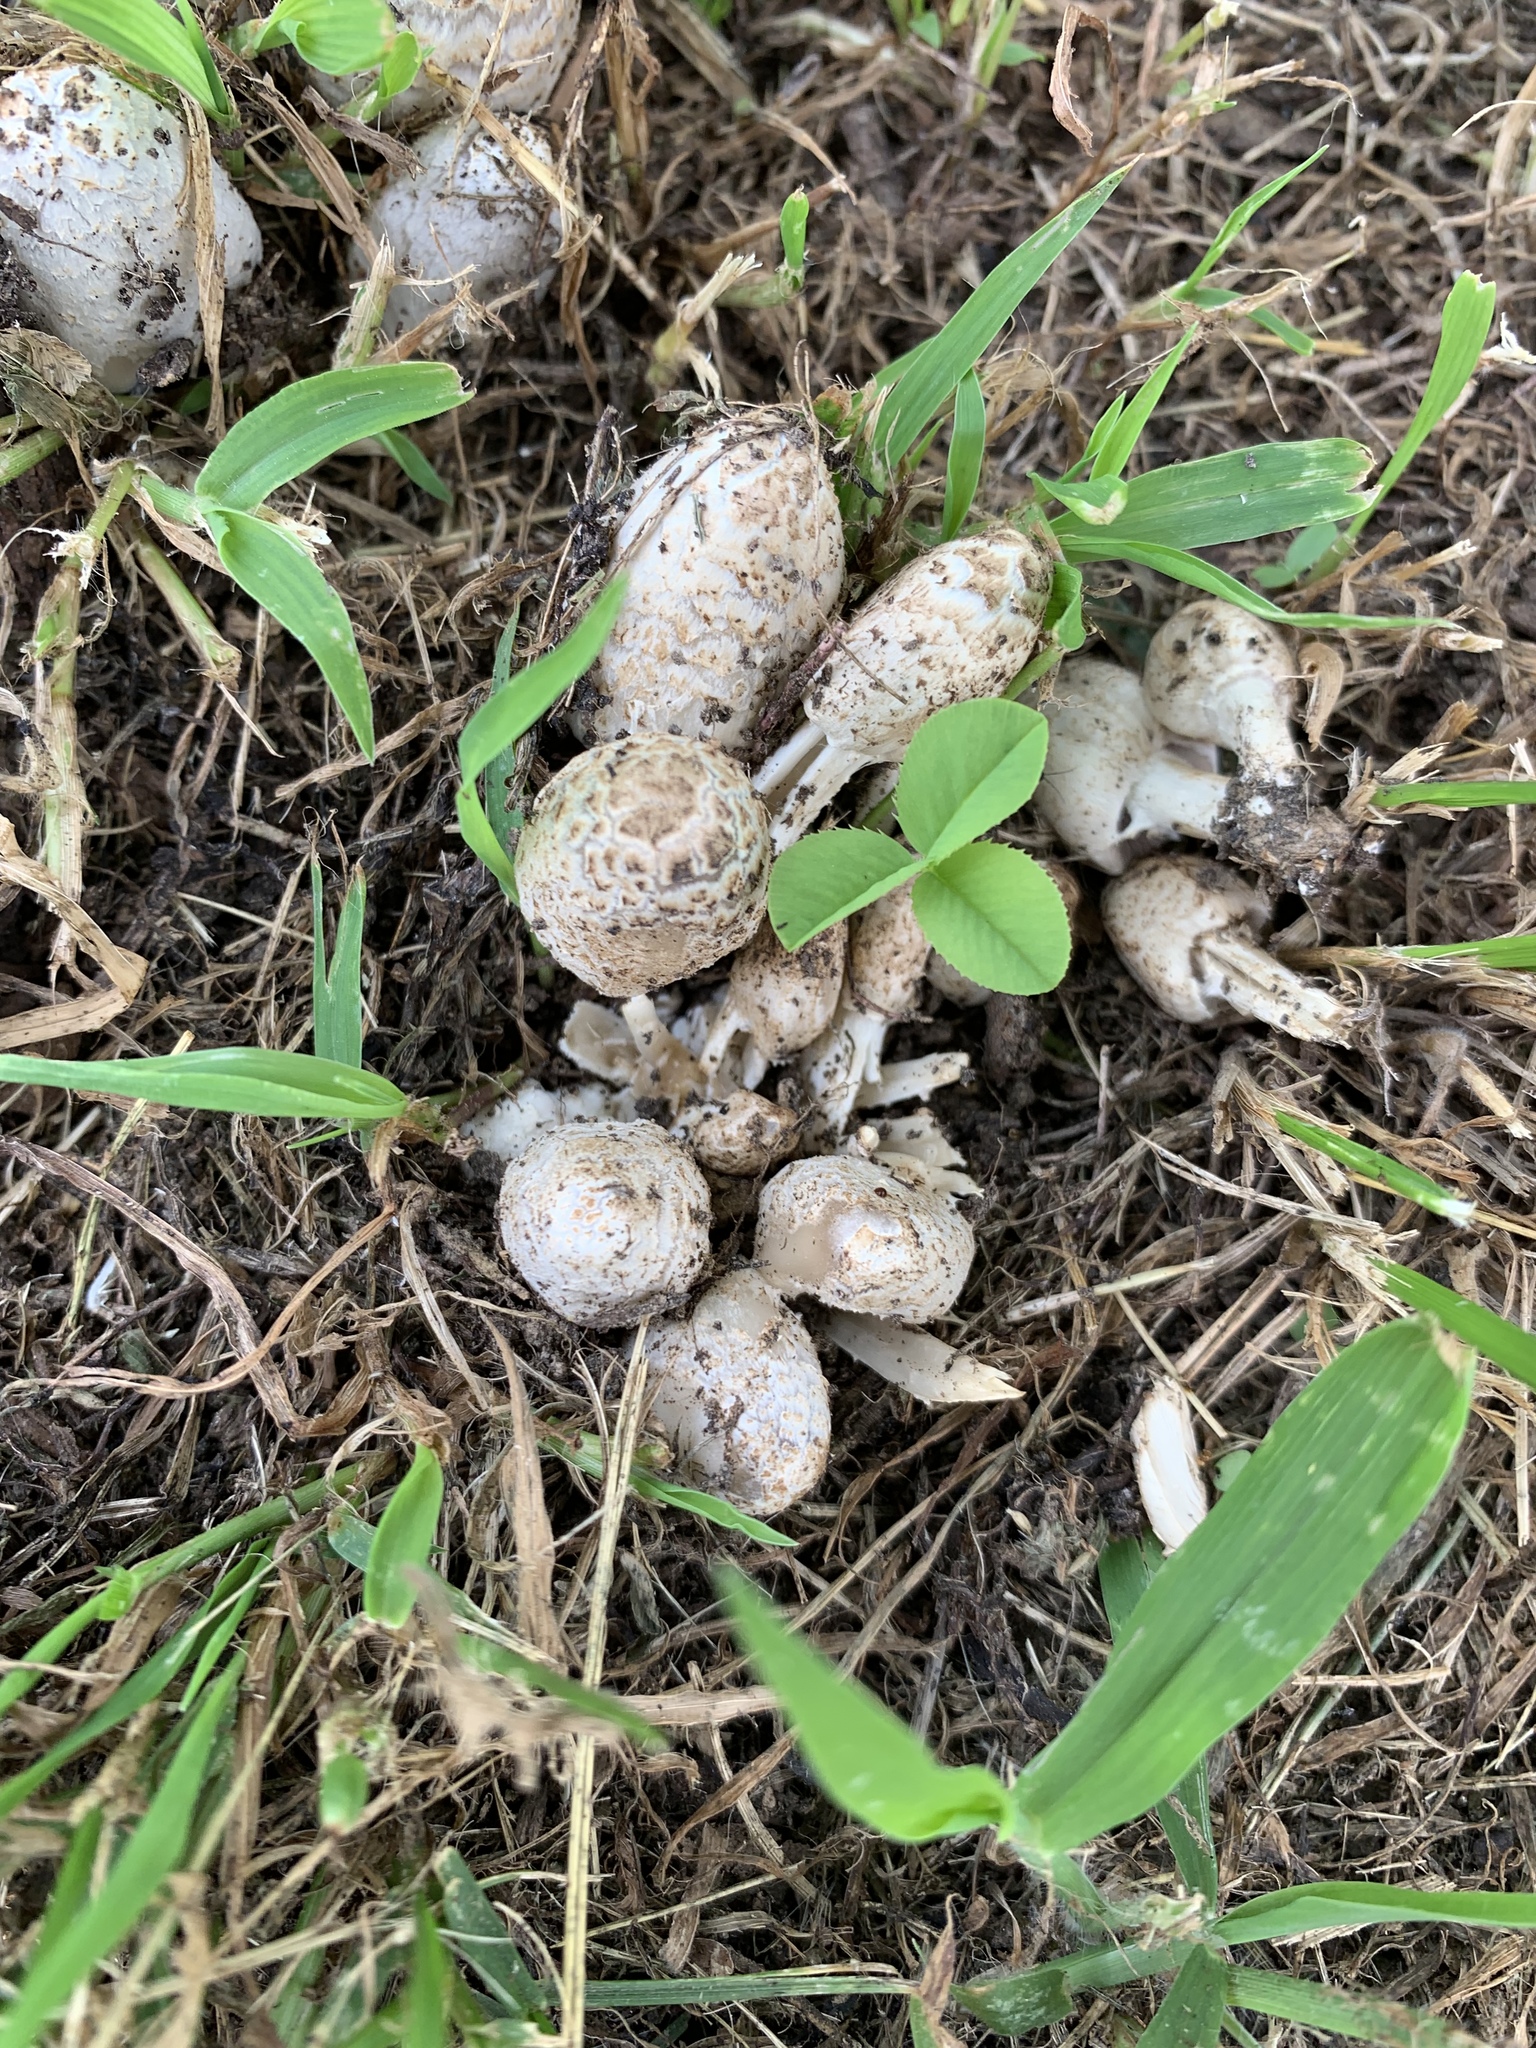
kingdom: Fungi
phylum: Basidiomycota
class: Agaricomycetes
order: Agaricales
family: Psathyrellaceae
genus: Coprinopsis
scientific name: Coprinopsis variegata
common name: Scaly ink cap
